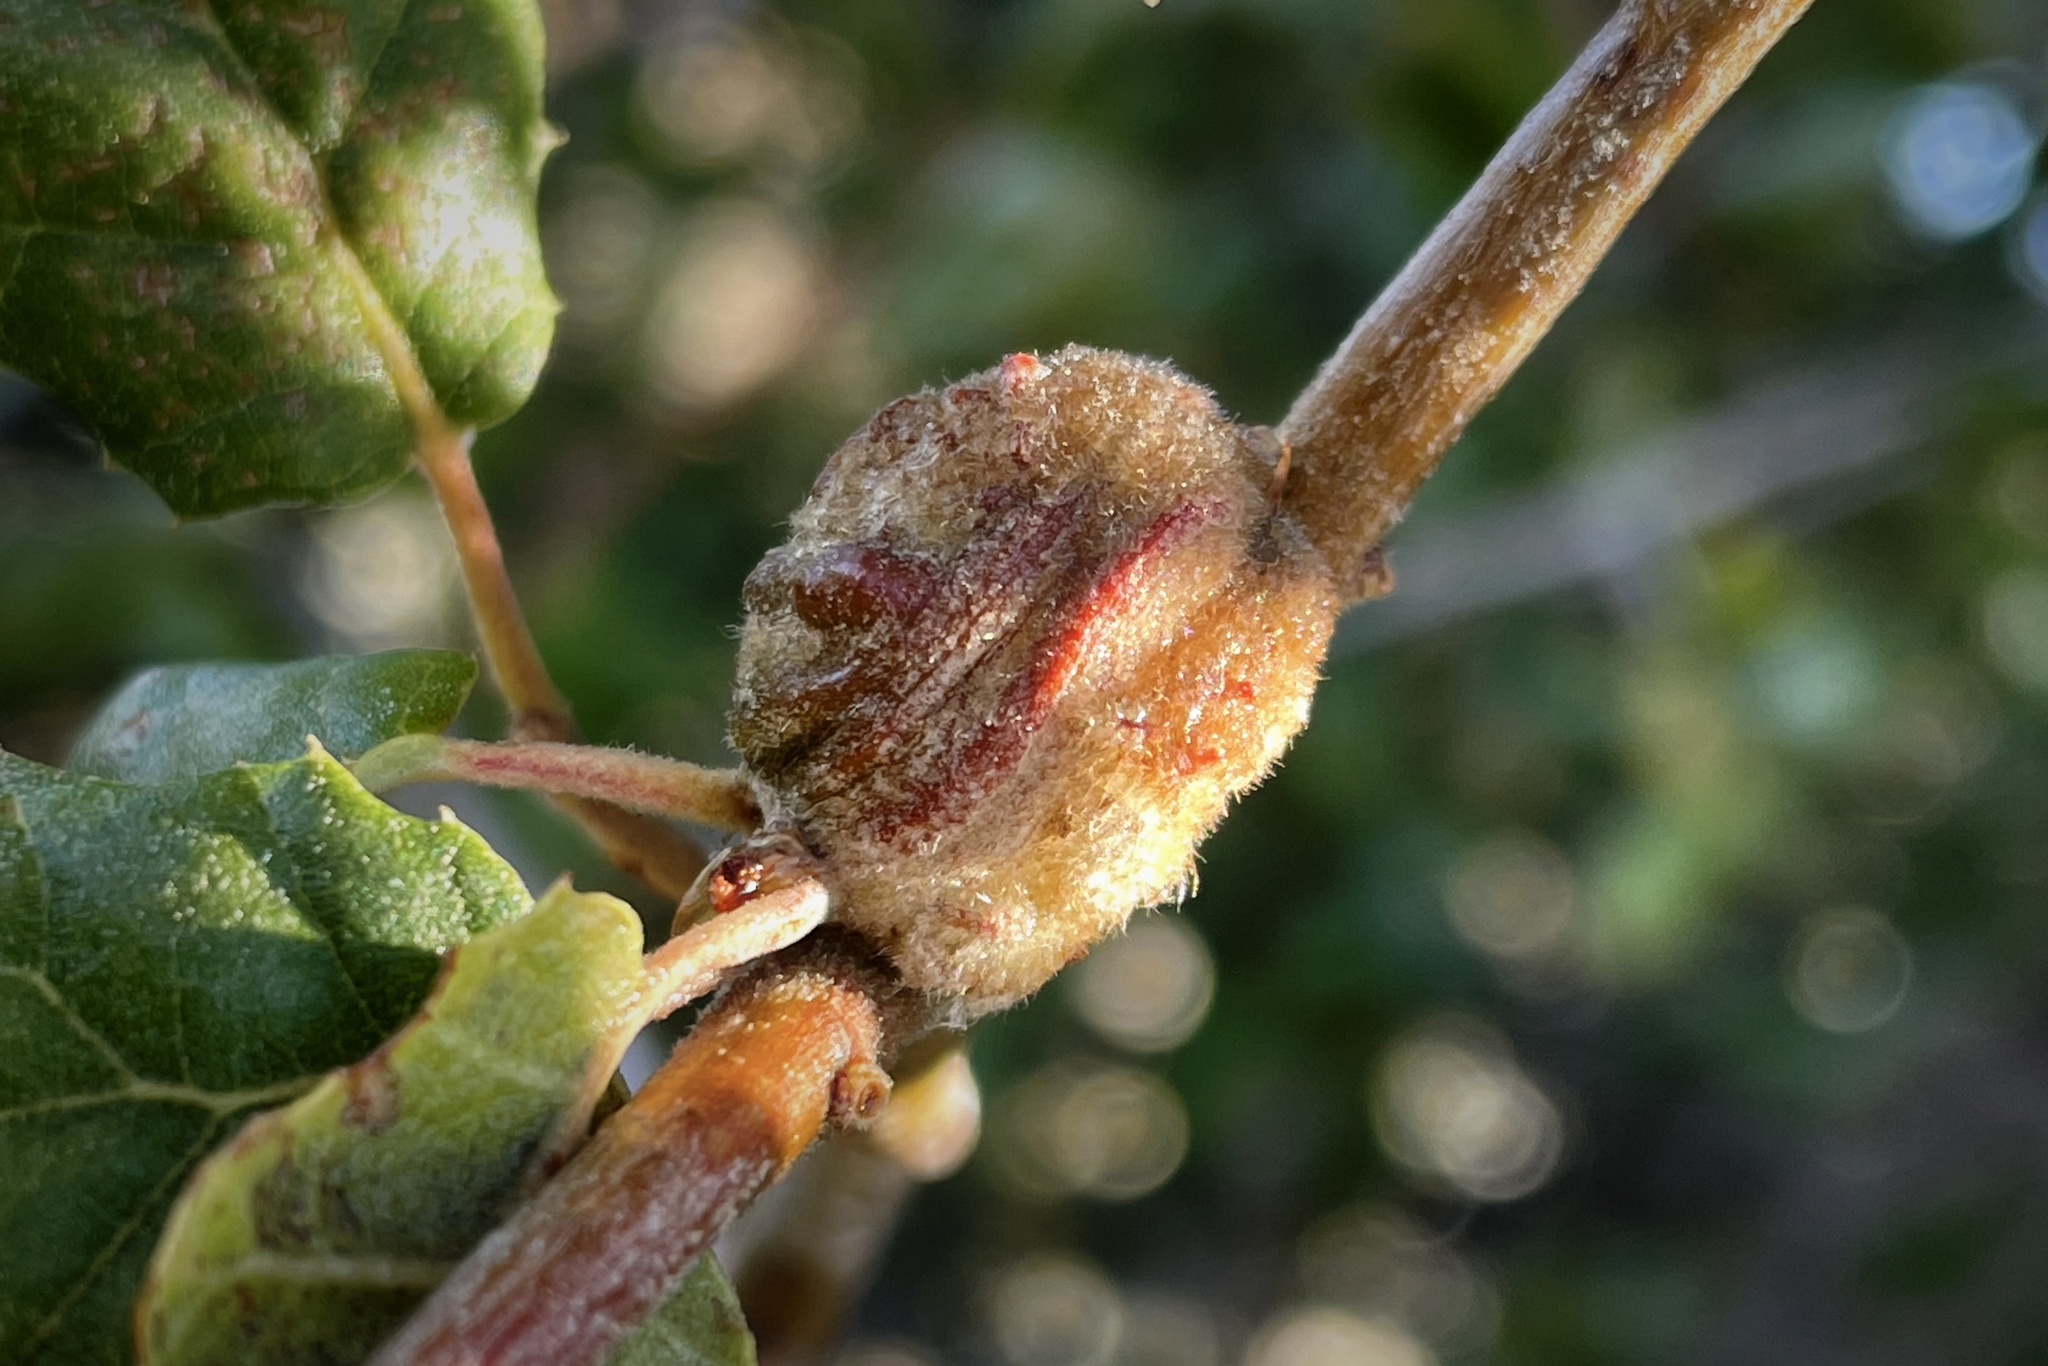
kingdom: Animalia
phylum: Arthropoda
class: Insecta
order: Hymenoptera
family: Cynipidae
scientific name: Cynipidae
